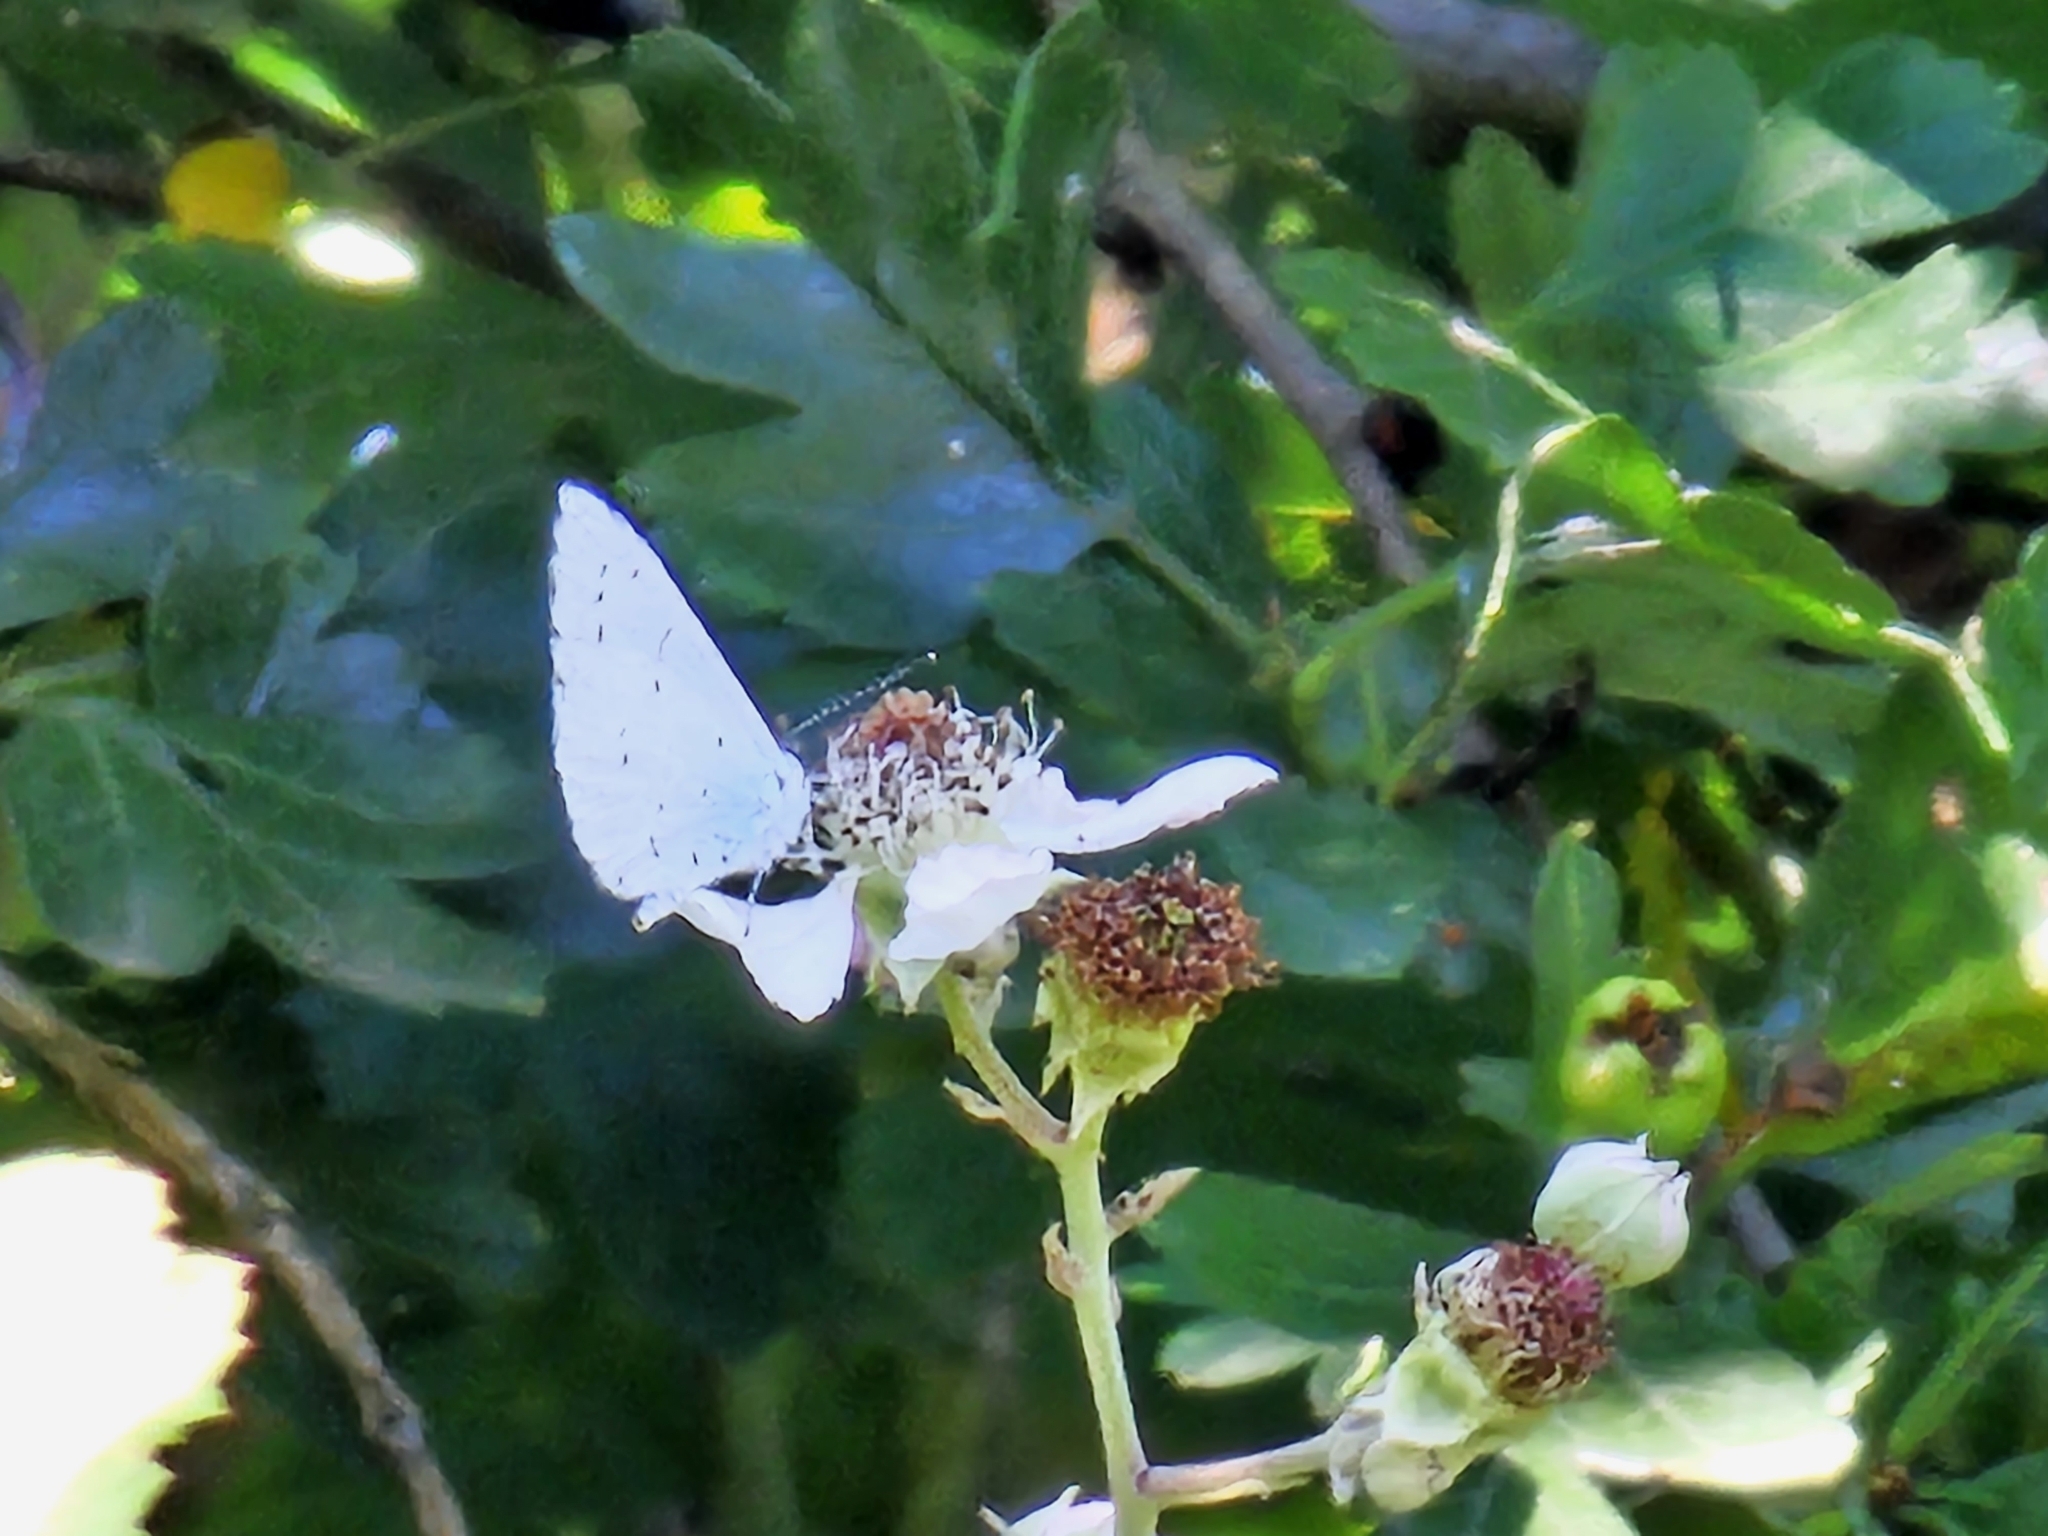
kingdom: Animalia
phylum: Arthropoda
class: Insecta
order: Lepidoptera
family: Lycaenidae
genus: Celastrina
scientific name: Celastrina argiolus
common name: Holly blue
